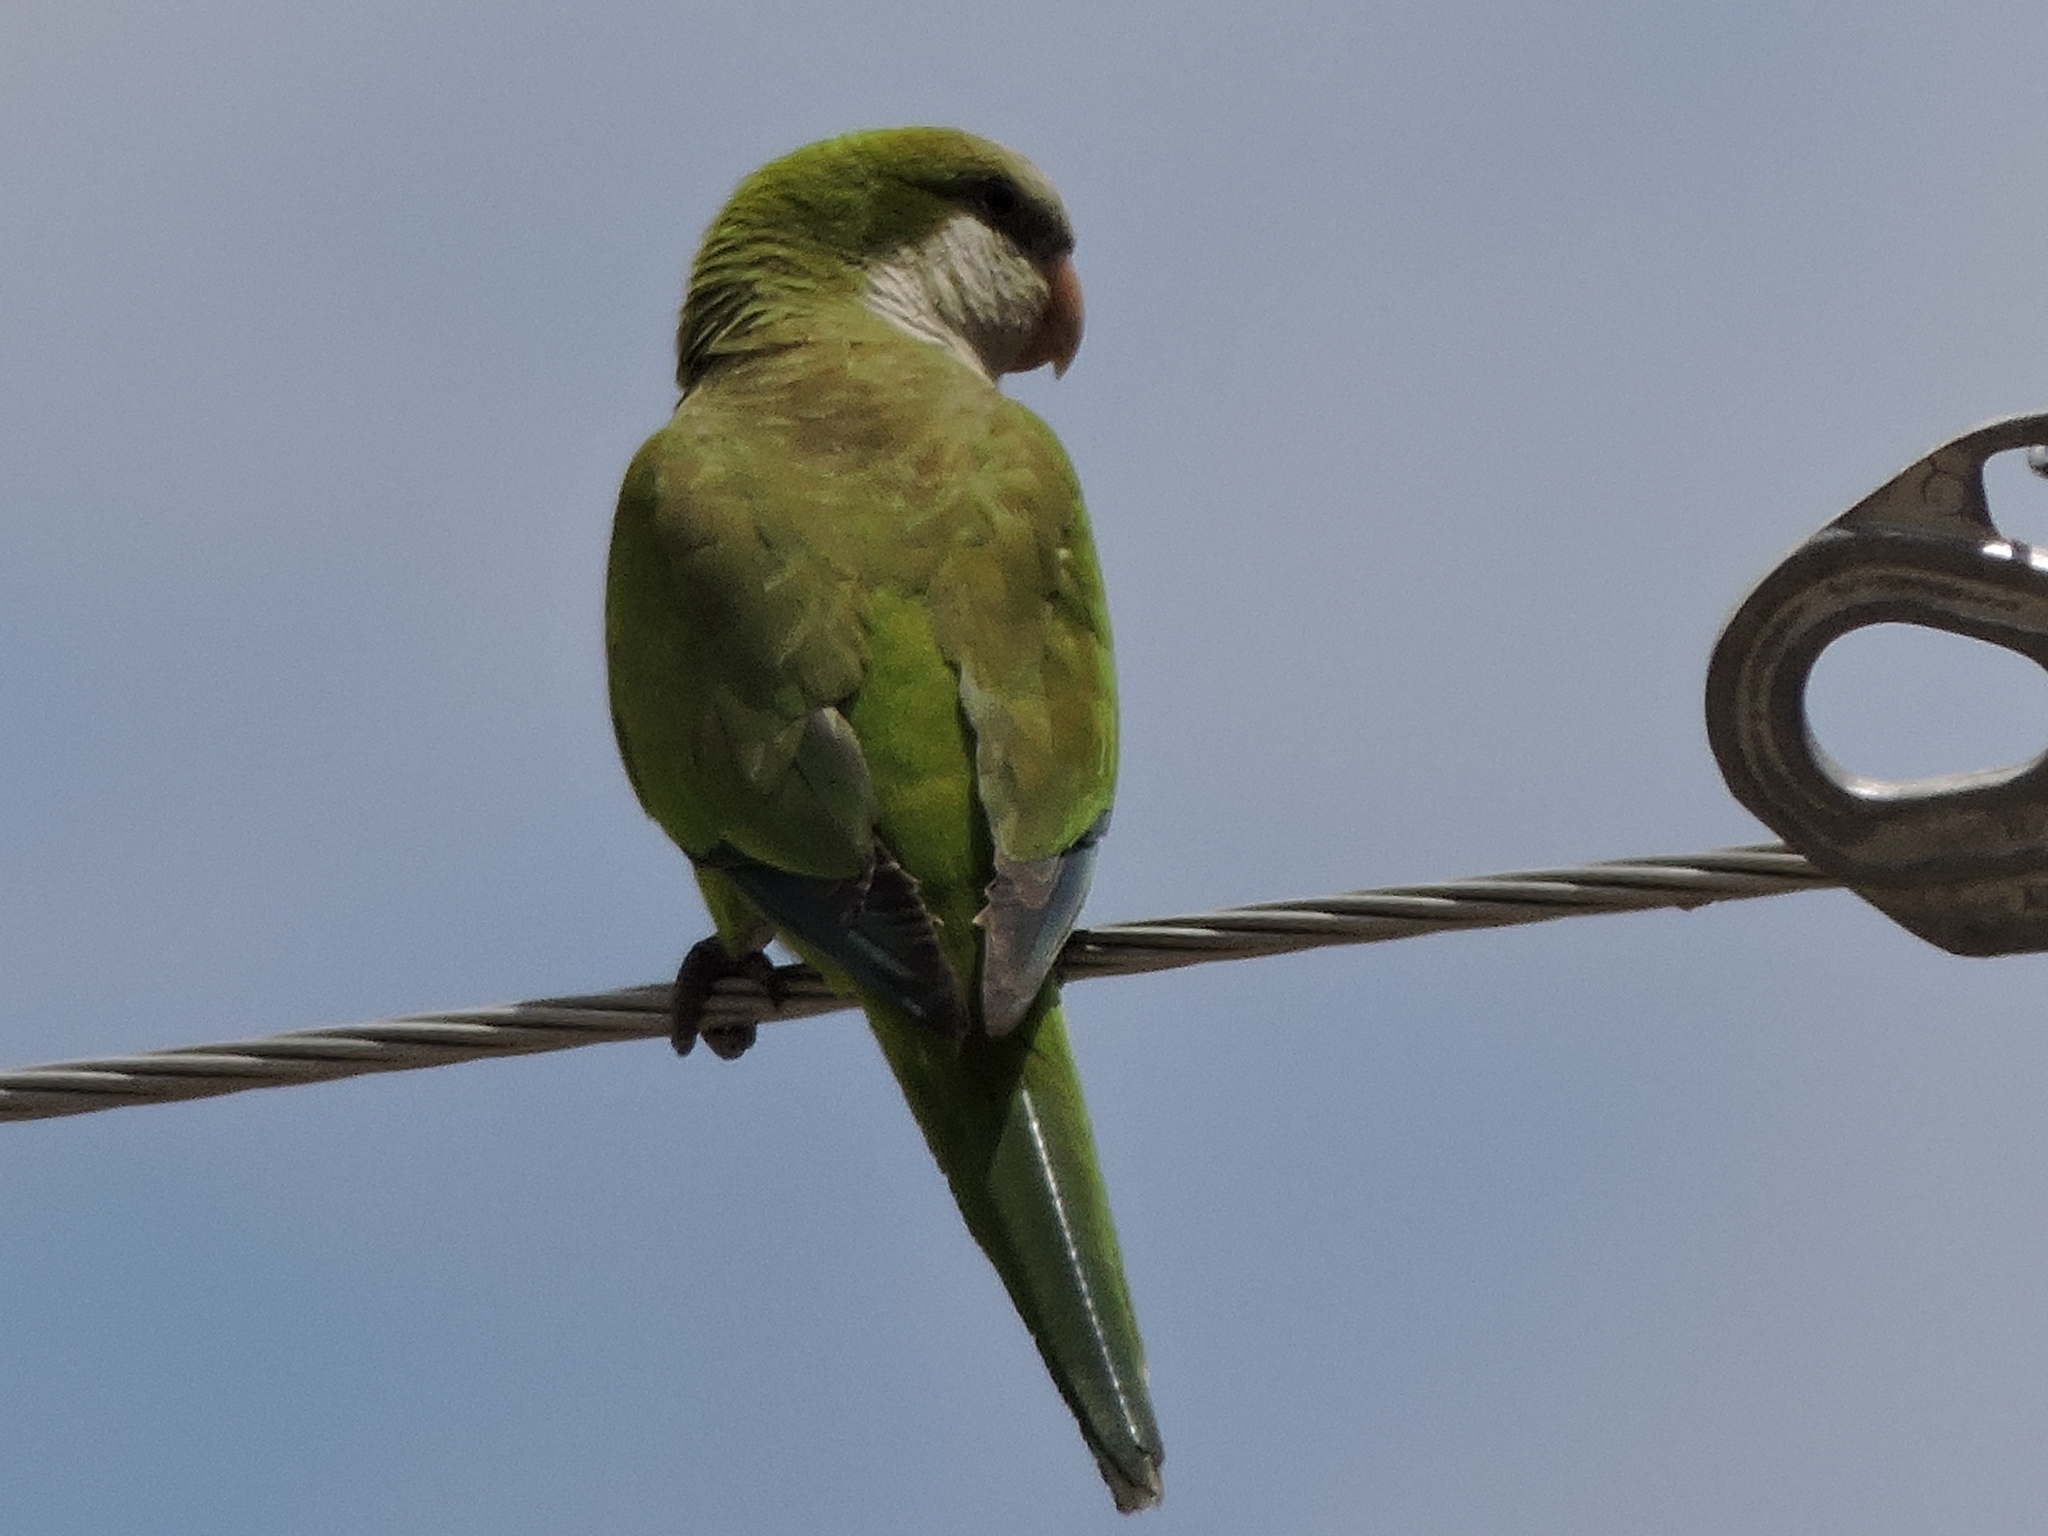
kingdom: Animalia
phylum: Chordata
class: Aves
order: Psittaciformes
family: Psittacidae
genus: Myiopsitta
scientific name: Myiopsitta monachus
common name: Monk parakeet
